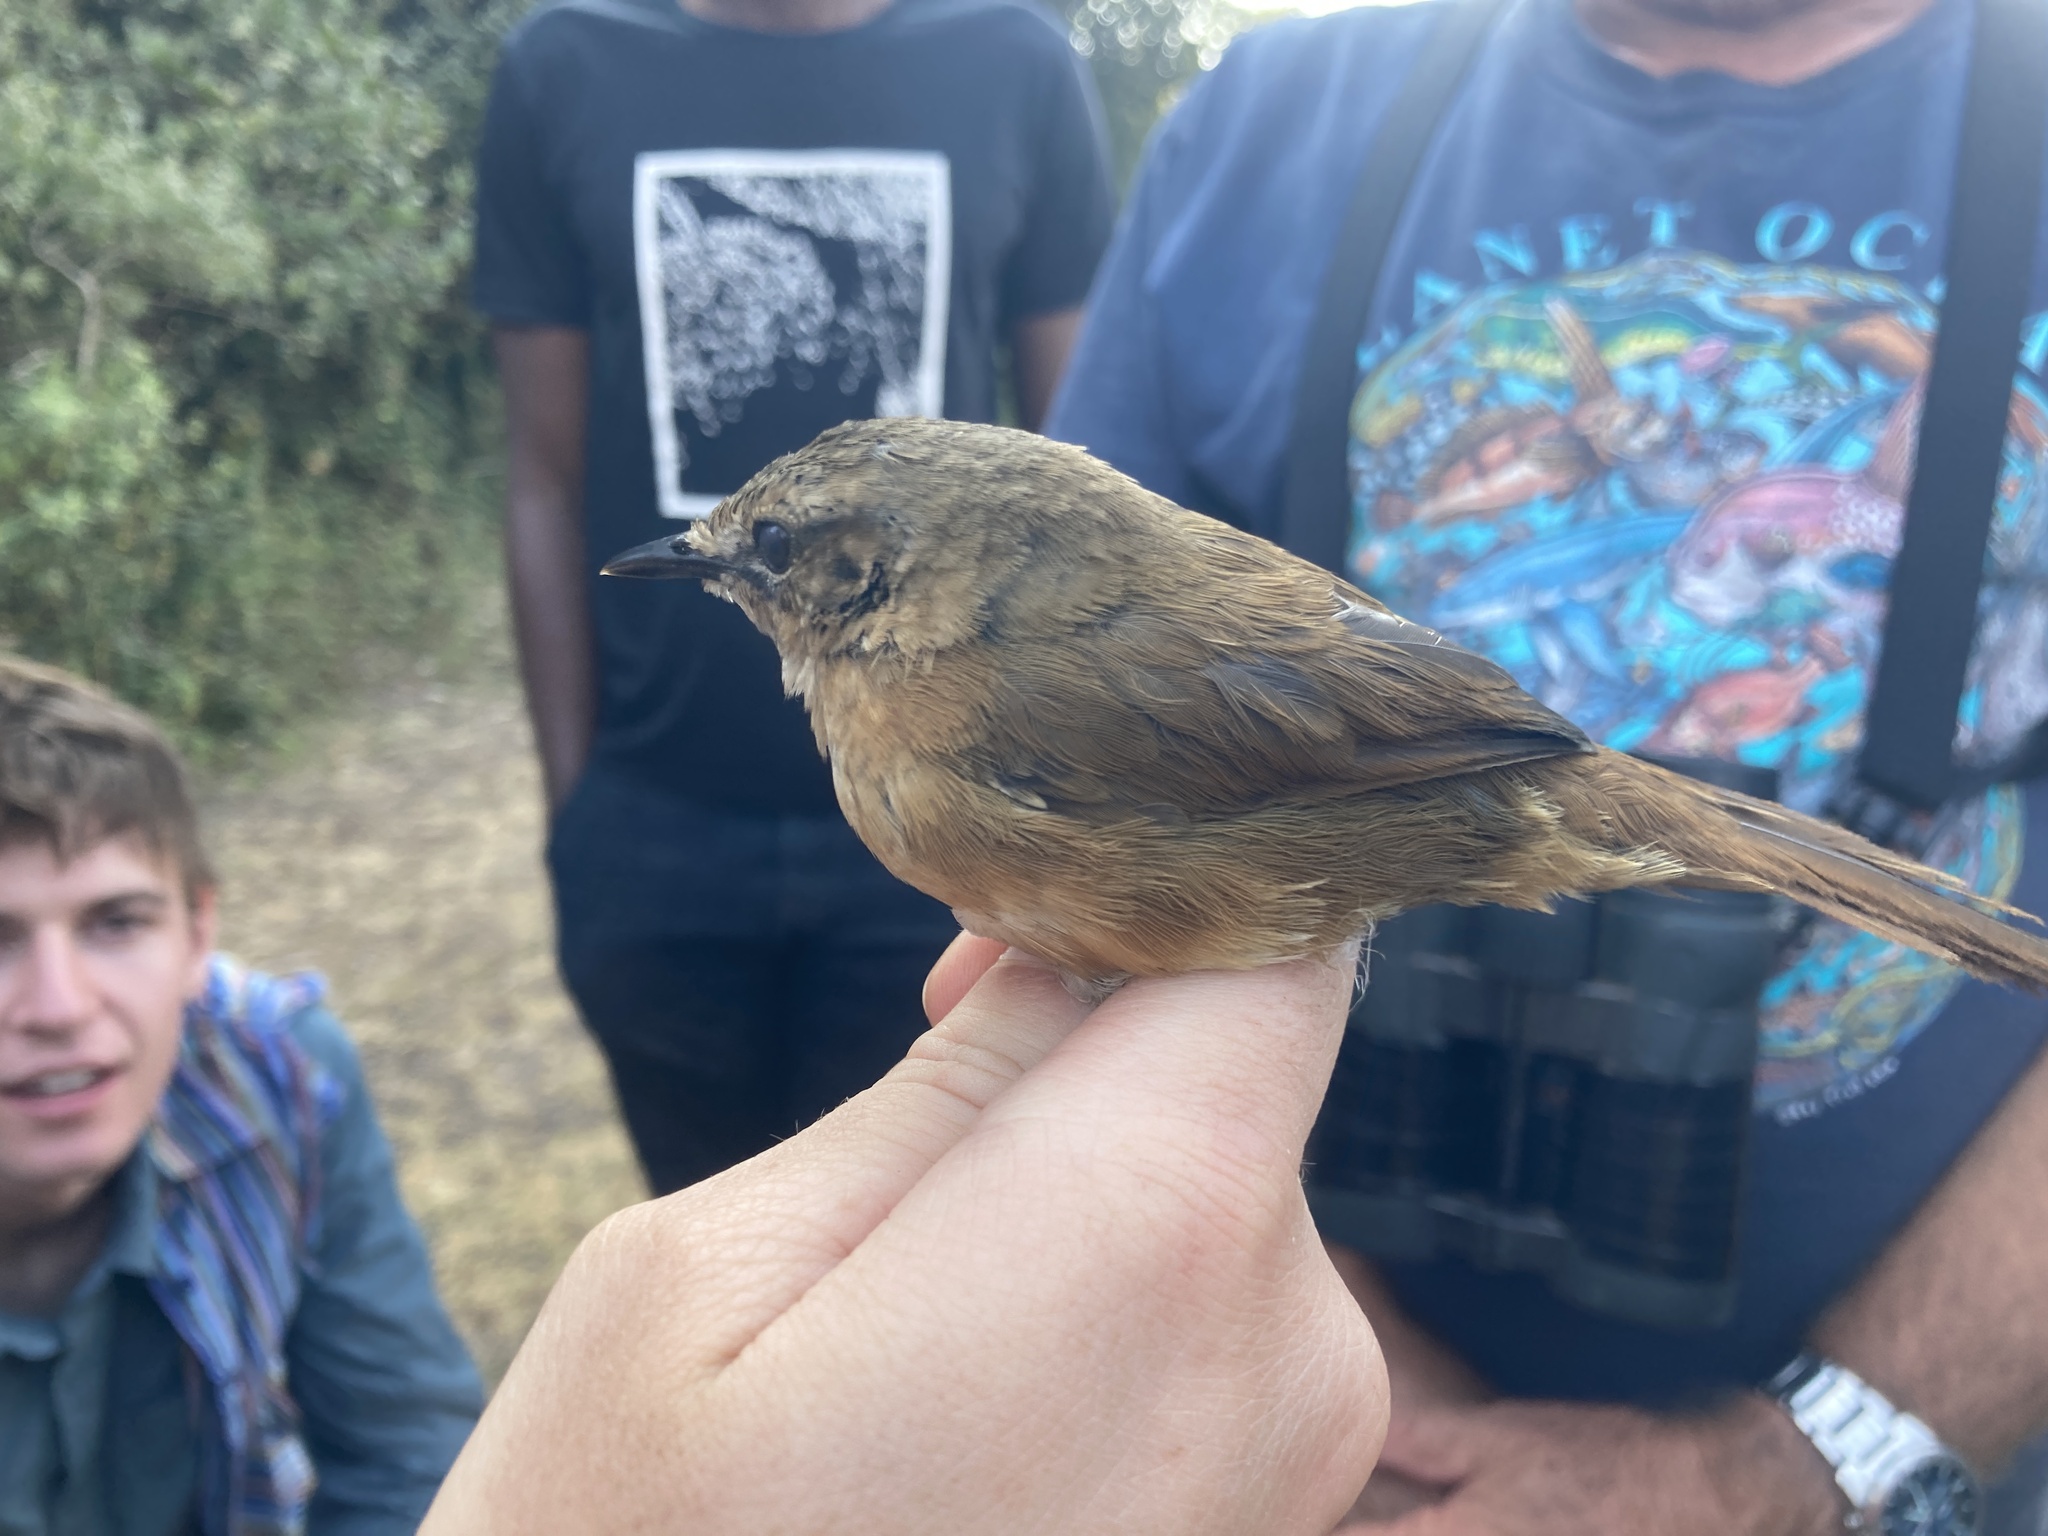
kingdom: Animalia
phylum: Chordata
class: Aves
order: Passeriformes
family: Locustellidae
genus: Bradypterus
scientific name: Bradypterus cinnamomeus
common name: Cinnamon bracken warbler
